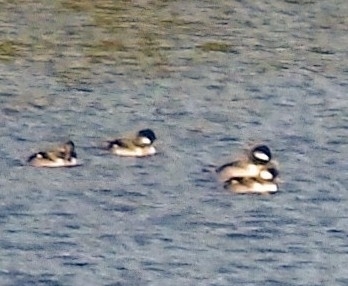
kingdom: Animalia
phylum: Chordata
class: Aves
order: Anseriformes
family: Anatidae
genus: Bucephala
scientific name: Bucephala albeola
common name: Bufflehead
